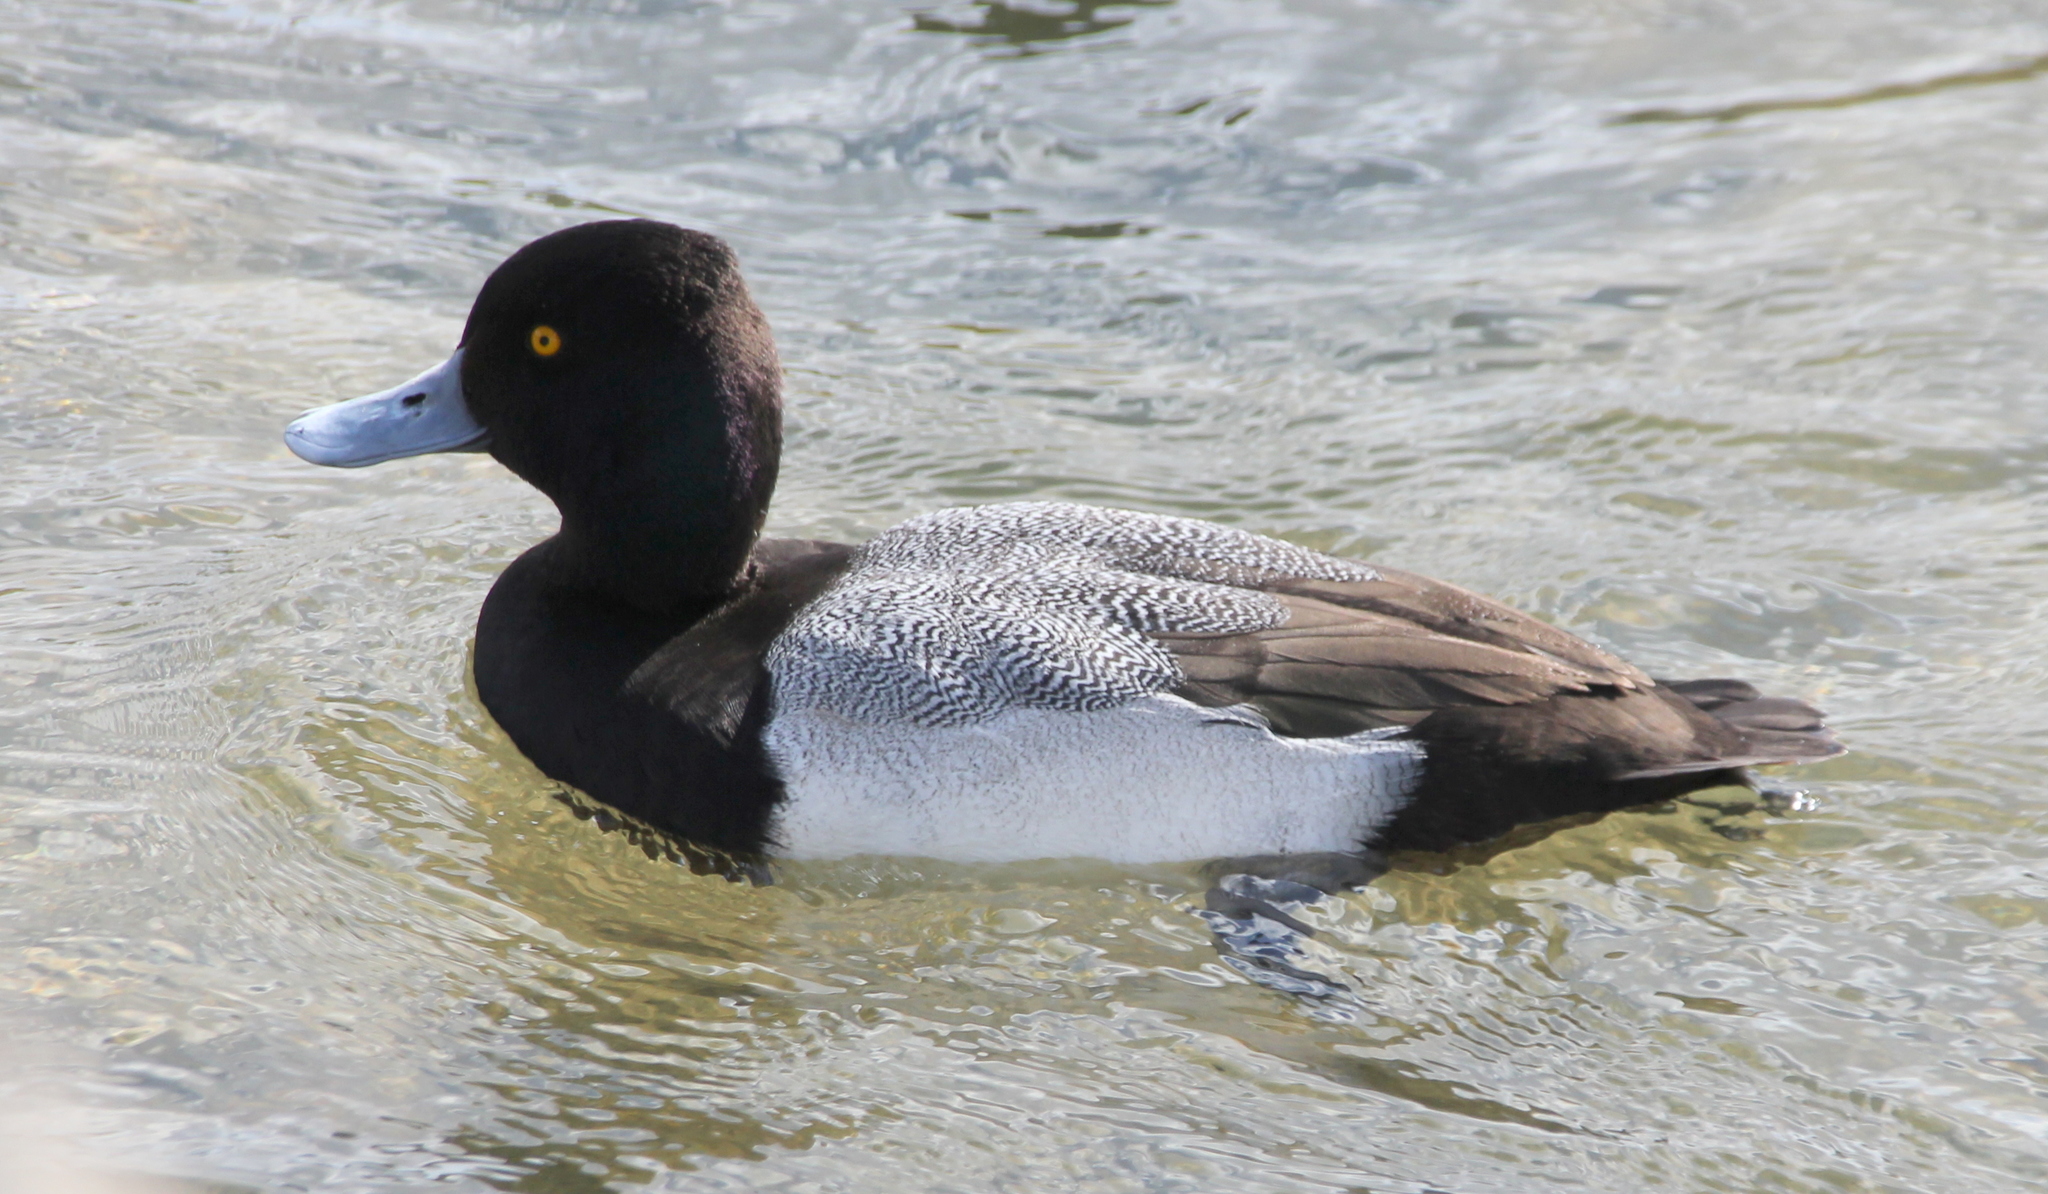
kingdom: Animalia
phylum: Chordata
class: Aves
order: Anseriformes
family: Anatidae
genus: Aythya
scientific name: Aythya affinis
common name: Lesser scaup
